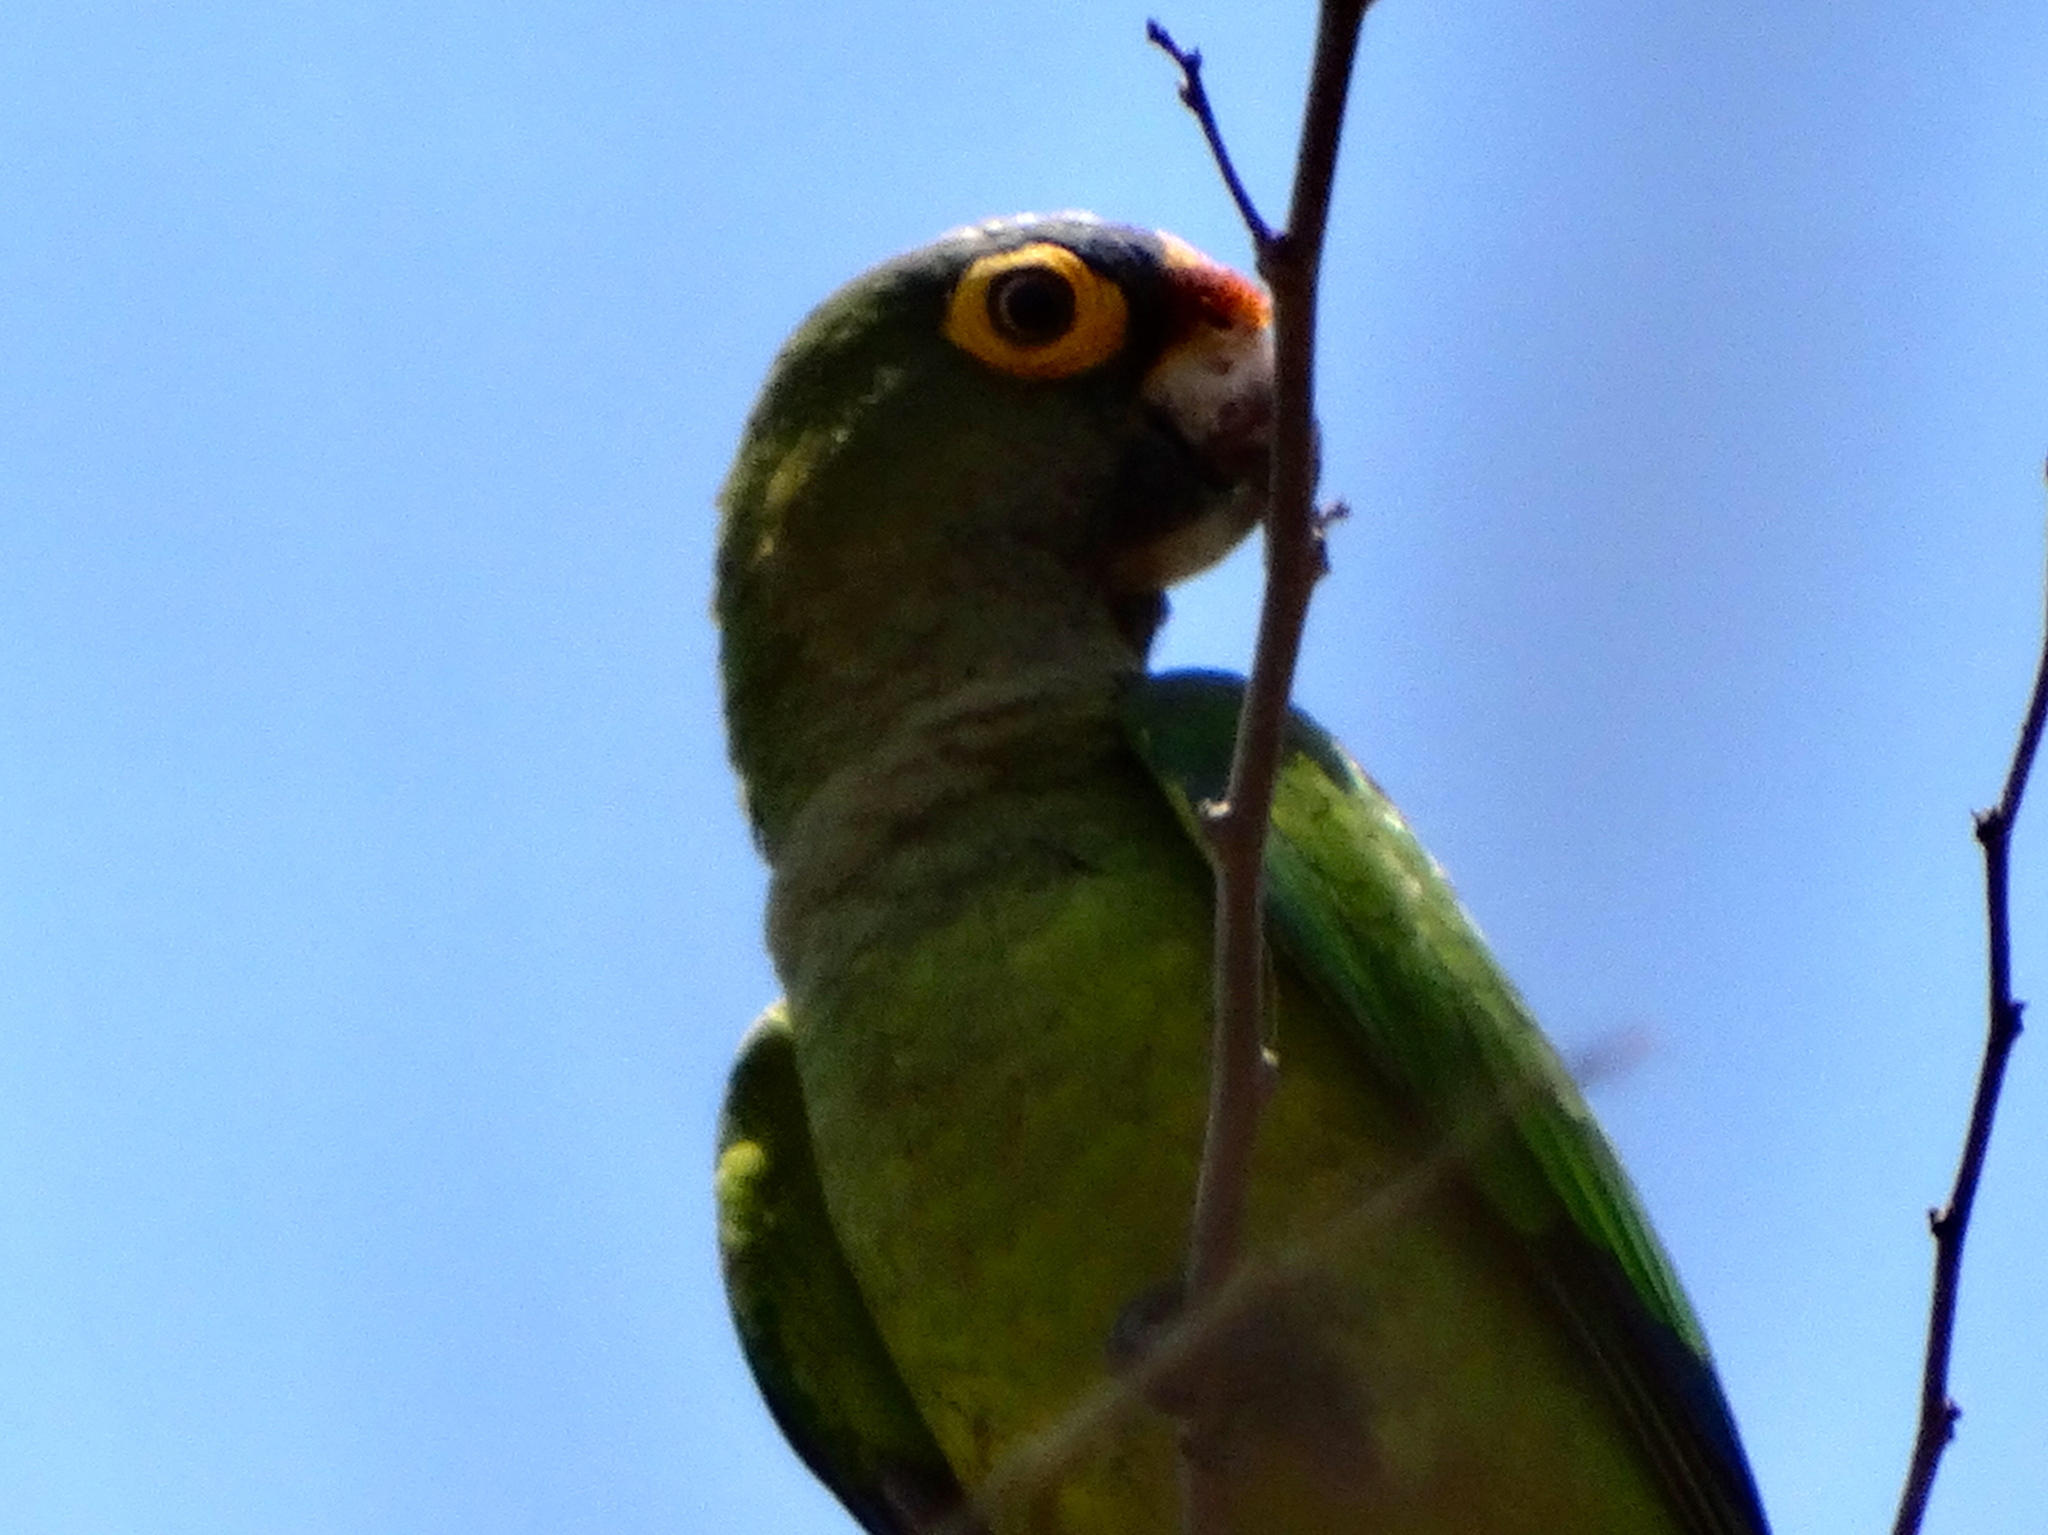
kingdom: Animalia
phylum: Chordata
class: Aves
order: Psittaciformes
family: Psittacidae
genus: Aratinga
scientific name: Aratinga canicularis
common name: Orange-fronted parakeet
